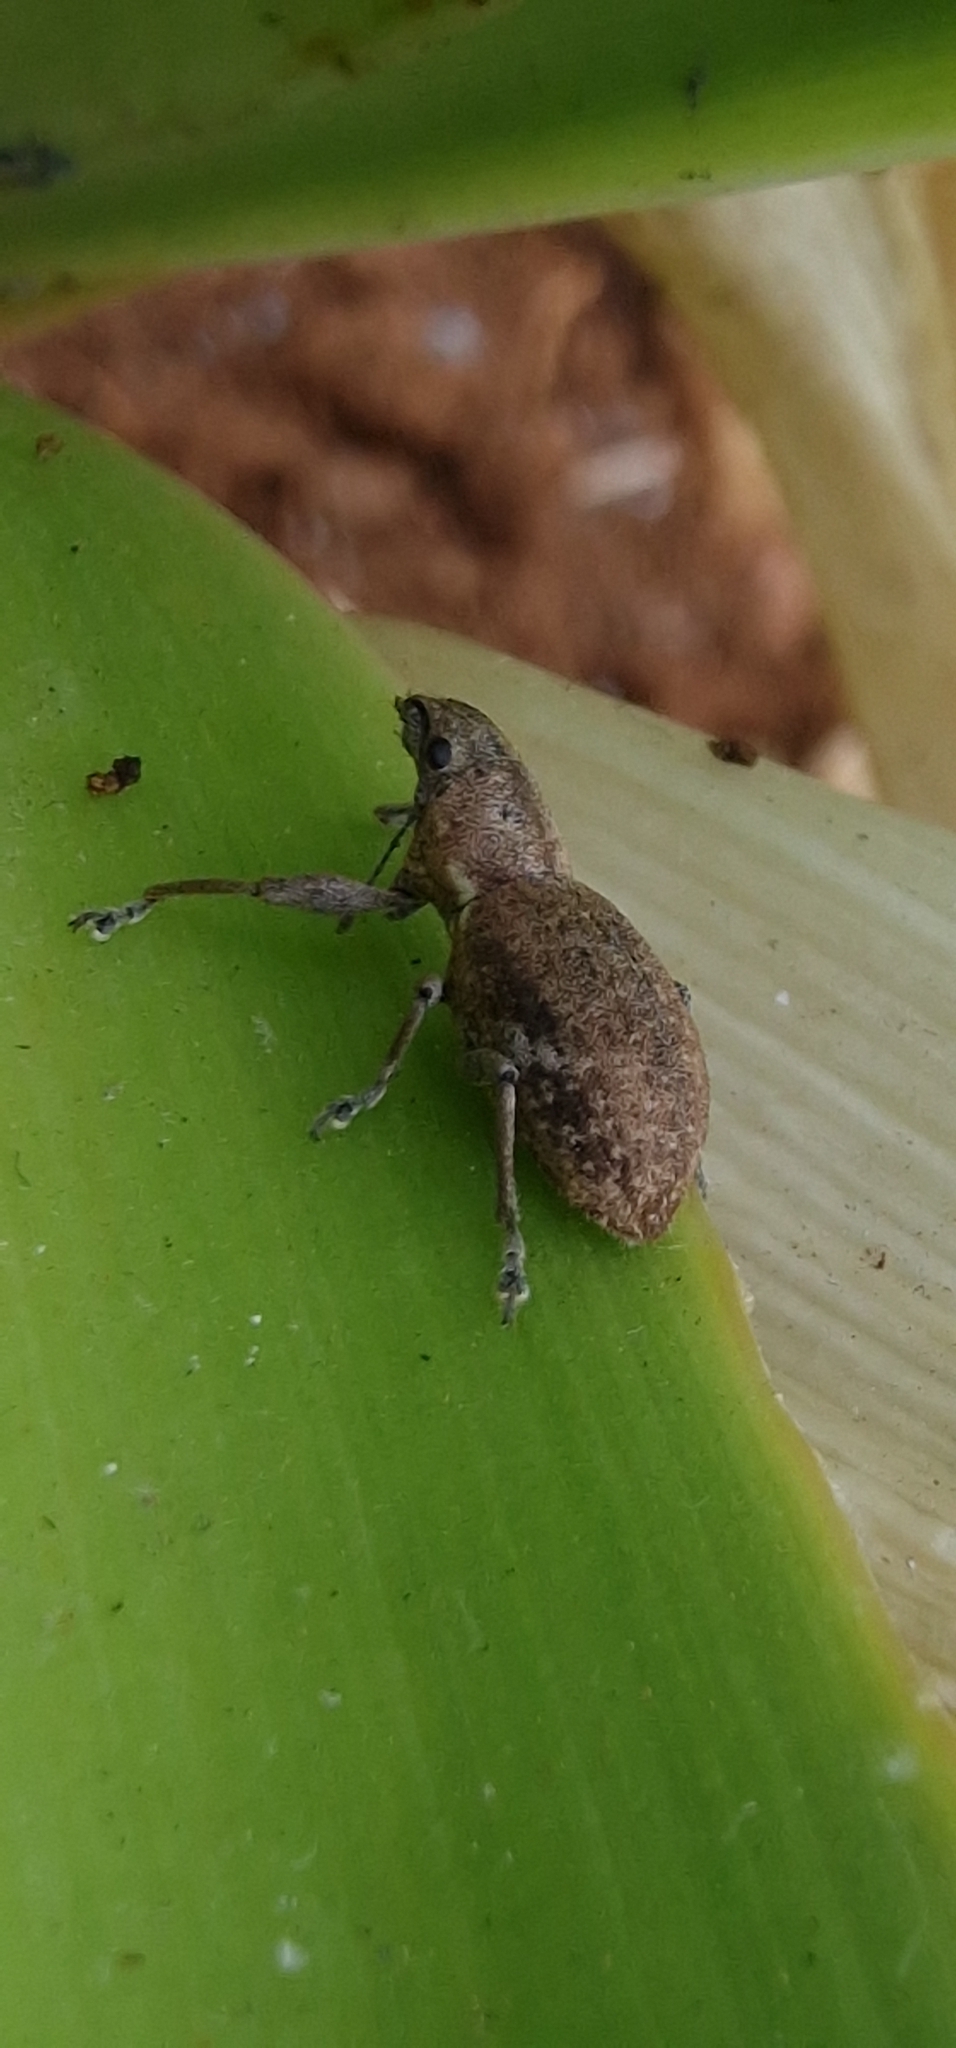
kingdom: Animalia
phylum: Arthropoda
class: Insecta
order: Coleoptera
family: Curculionidae
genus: Naupactus
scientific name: Naupactus cervinus
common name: Fuller rose beetle
